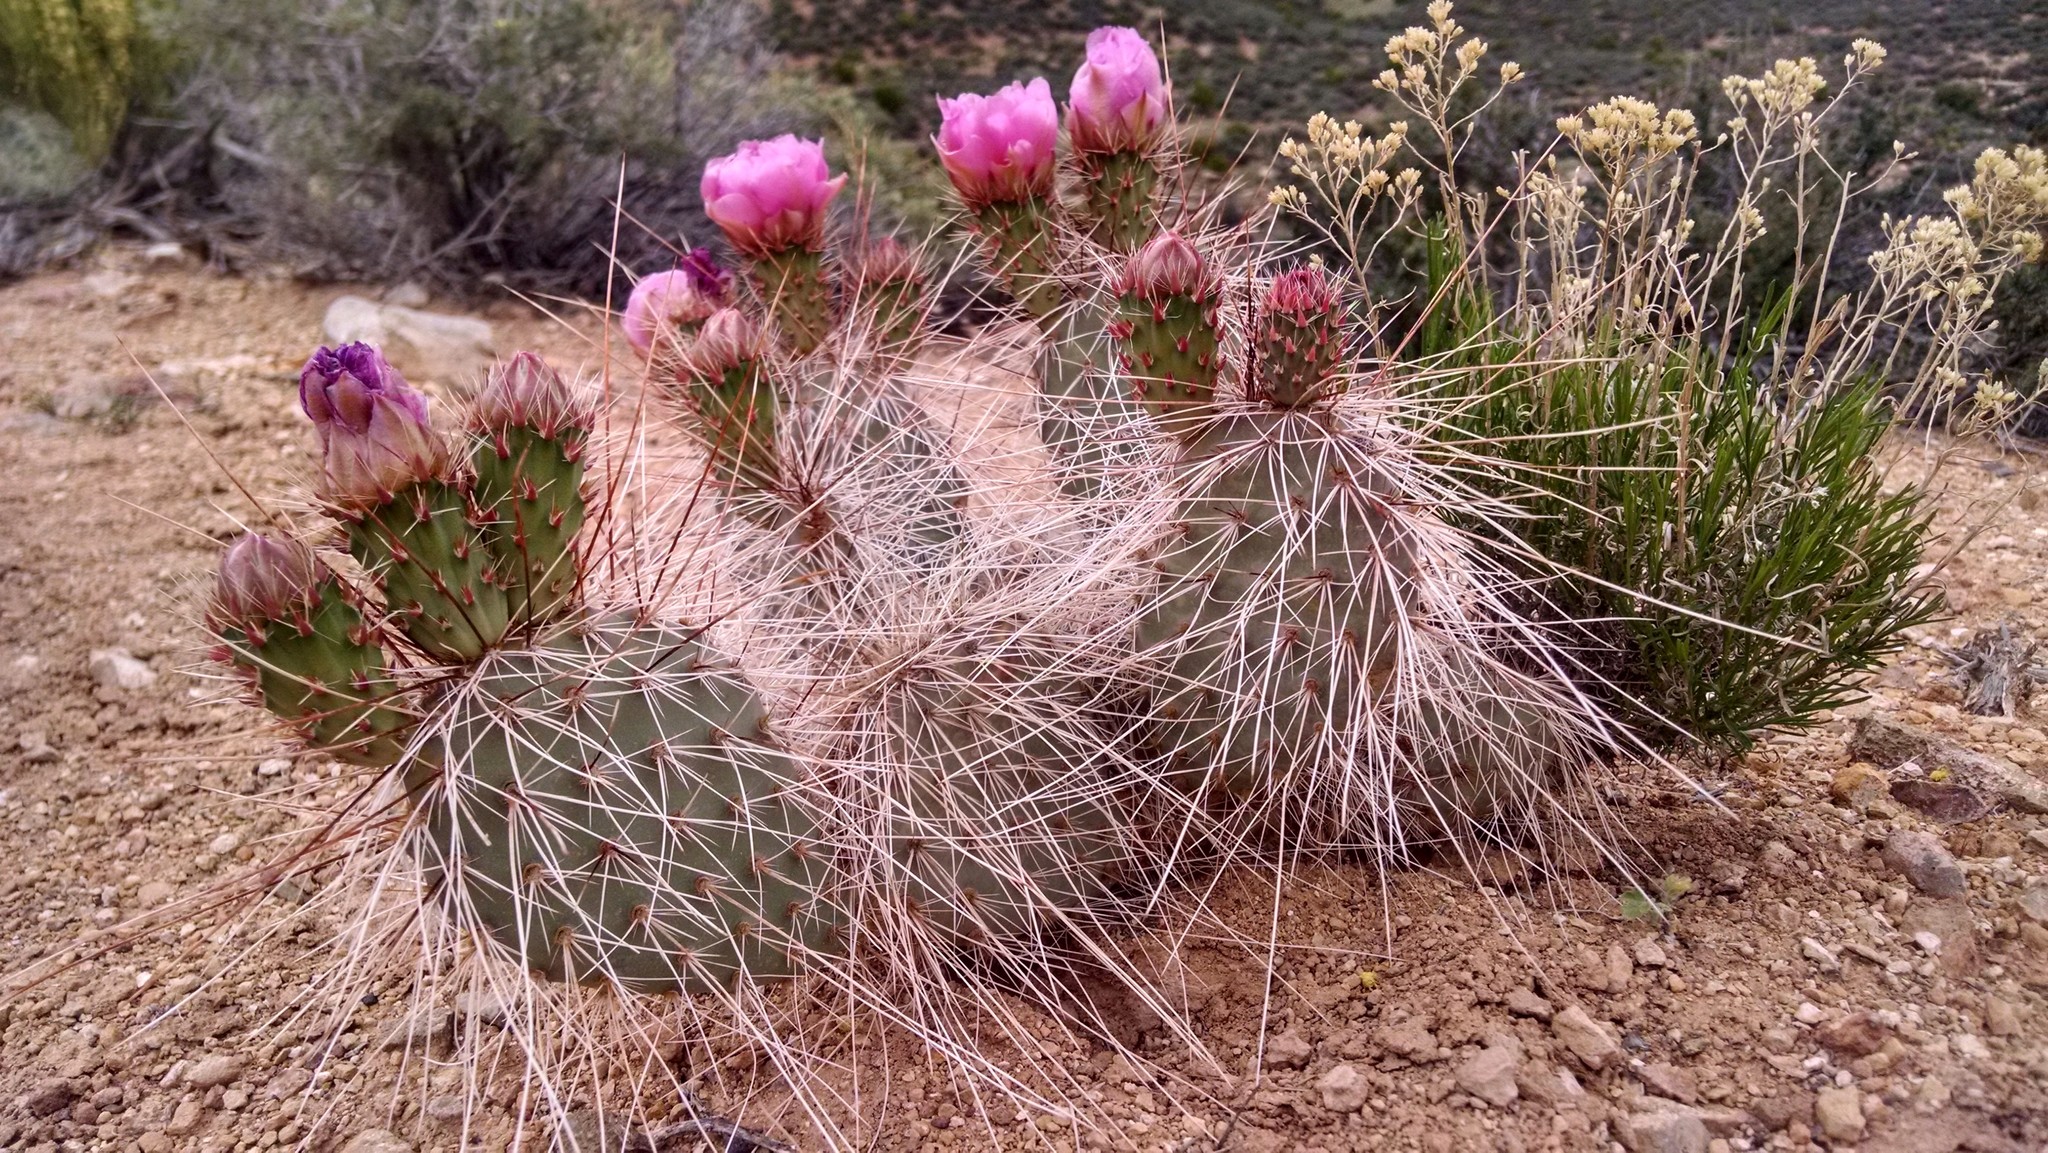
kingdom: Plantae
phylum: Tracheophyta
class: Magnoliopsida
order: Caryophyllales
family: Cactaceae
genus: Opuntia
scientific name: Opuntia polyacantha
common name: Plains prickly-pear
